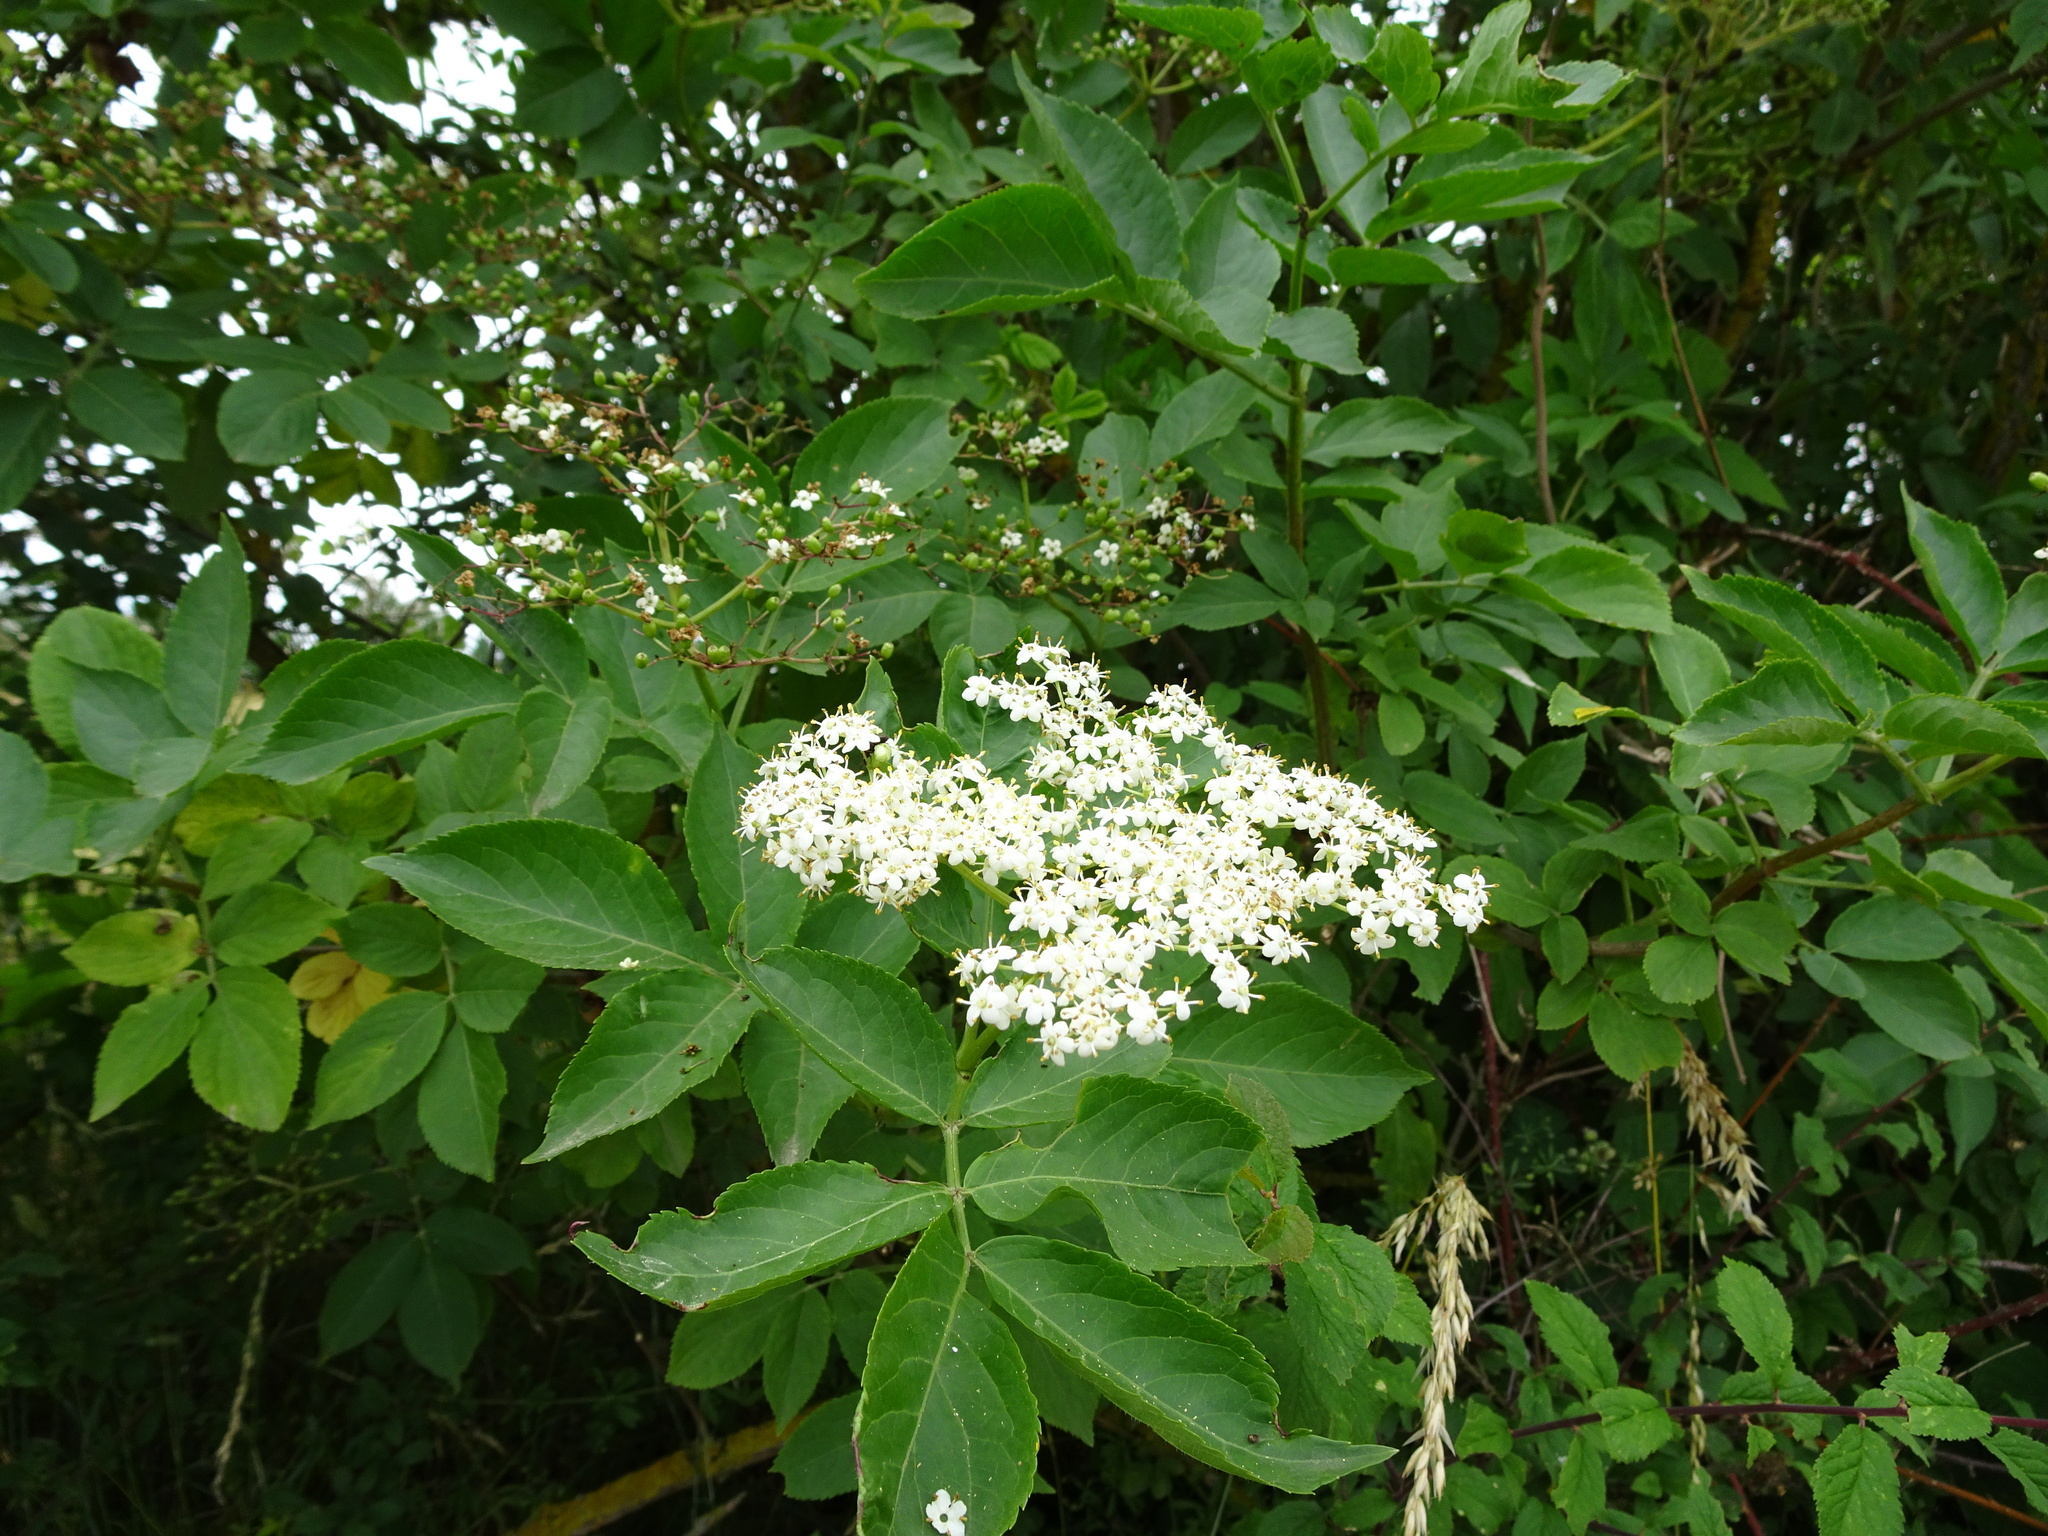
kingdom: Plantae
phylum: Tracheophyta
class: Magnoliopsida
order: Dipsacales
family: Viburnaceae
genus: Sambucus
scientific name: Sambucus nigra
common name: Elder
